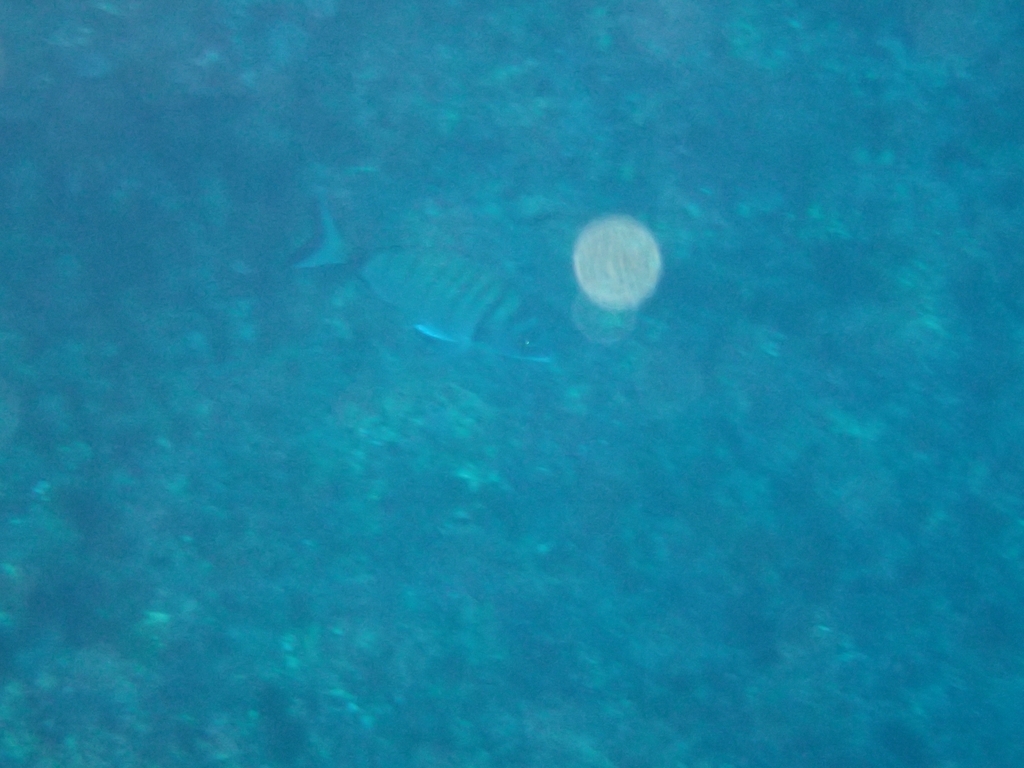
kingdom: Animalia
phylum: Chordata
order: Perciformes
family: Sparidae
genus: Diplodus
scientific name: Diplodus puntazzo
